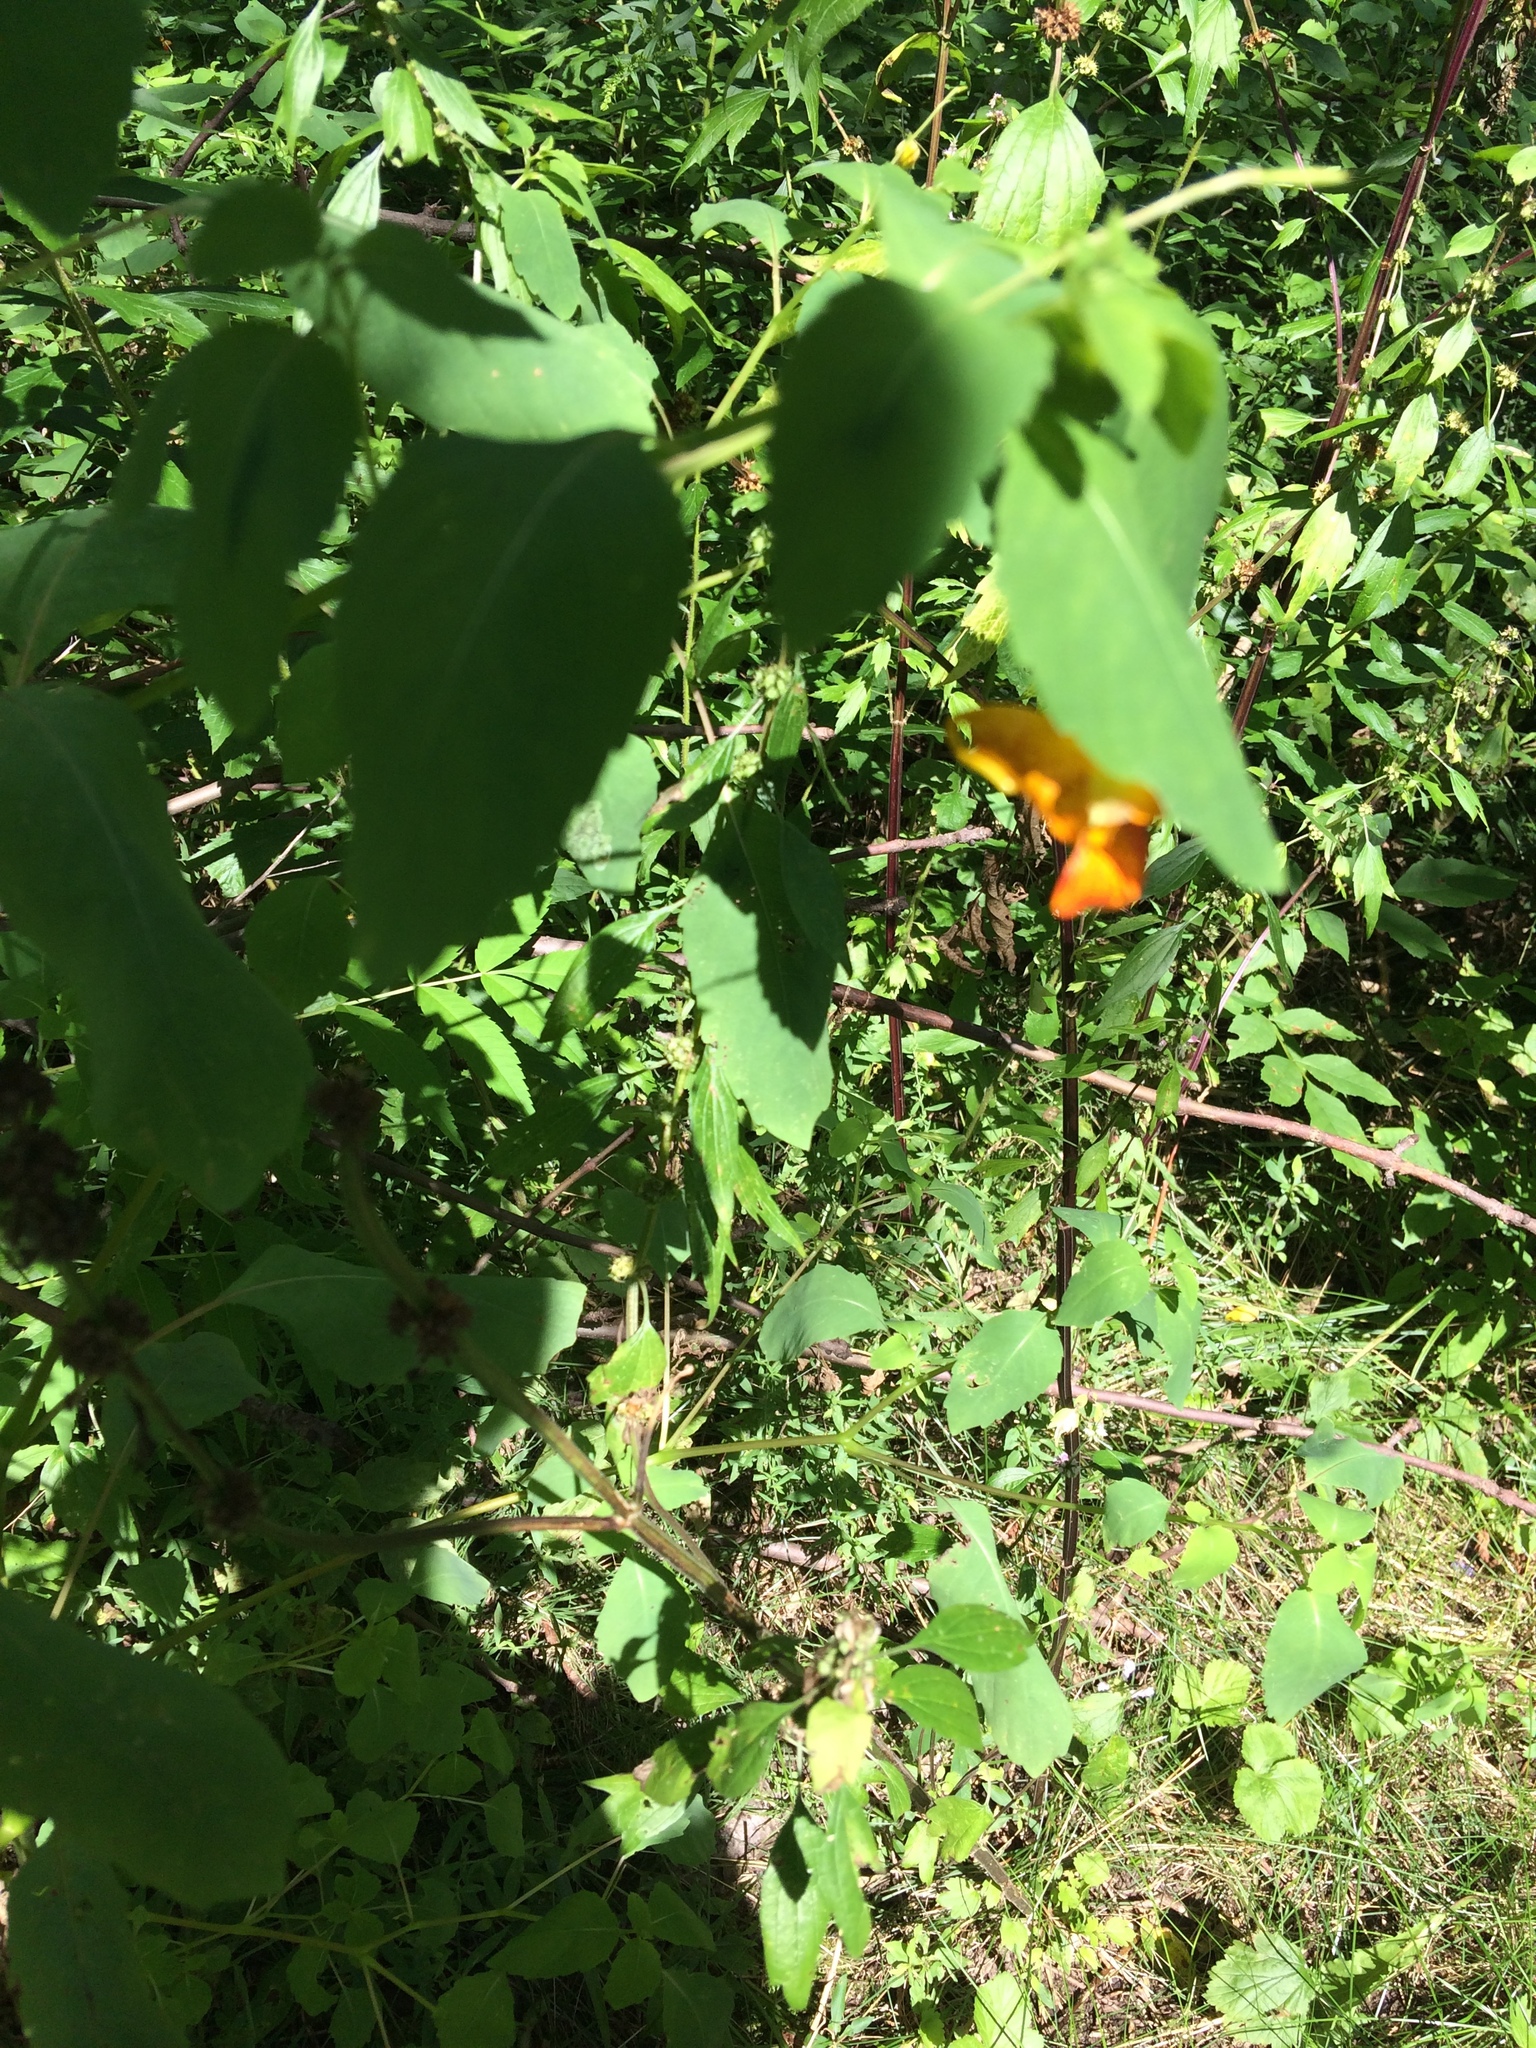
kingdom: Plantae
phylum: Tracheophyta
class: Magnoliopsida
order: Ericales
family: Balsaminaceae
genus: Impatiens
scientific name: Impatiens capensis
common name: Orange balsam
